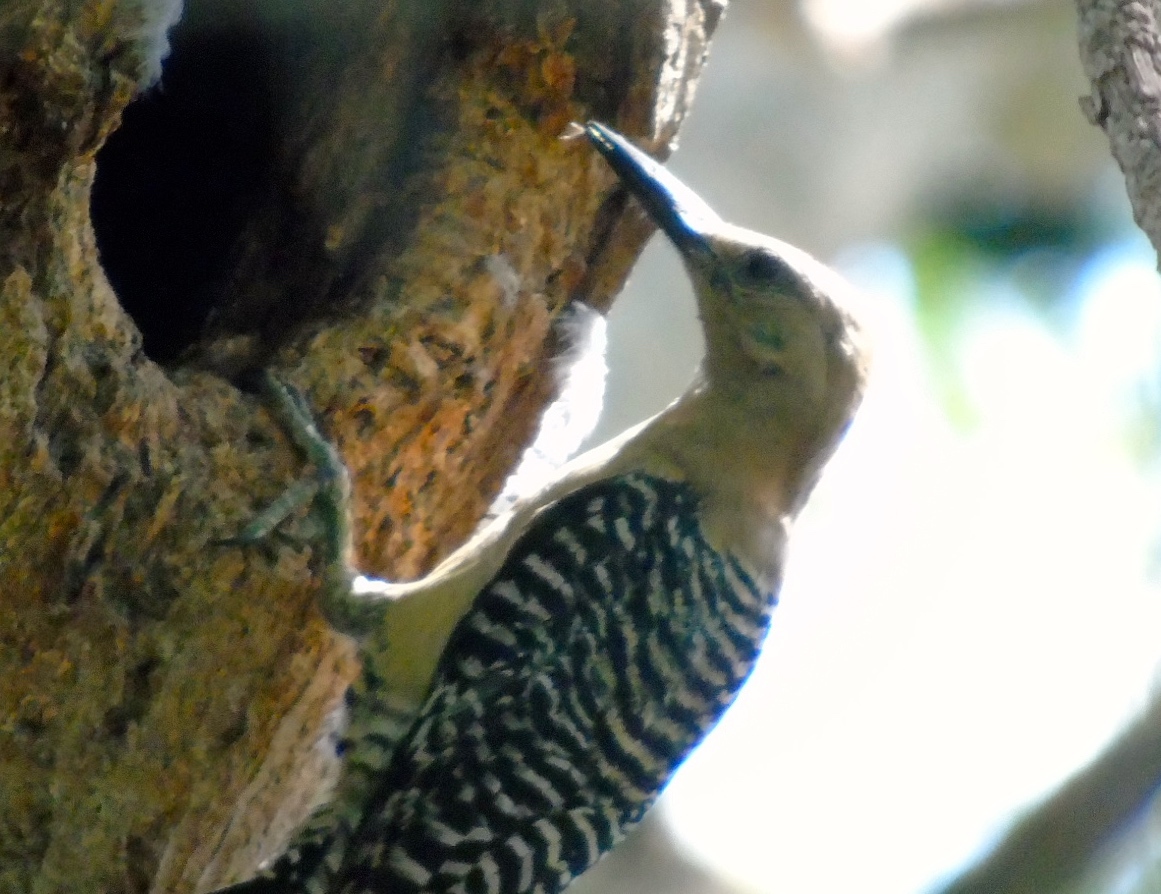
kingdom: Animalia
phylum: Chordata
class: Aves
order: Piciformes
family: Picidae
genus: Melanerpes
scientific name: Melanerpes uropygialis
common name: Gila woodpecker
